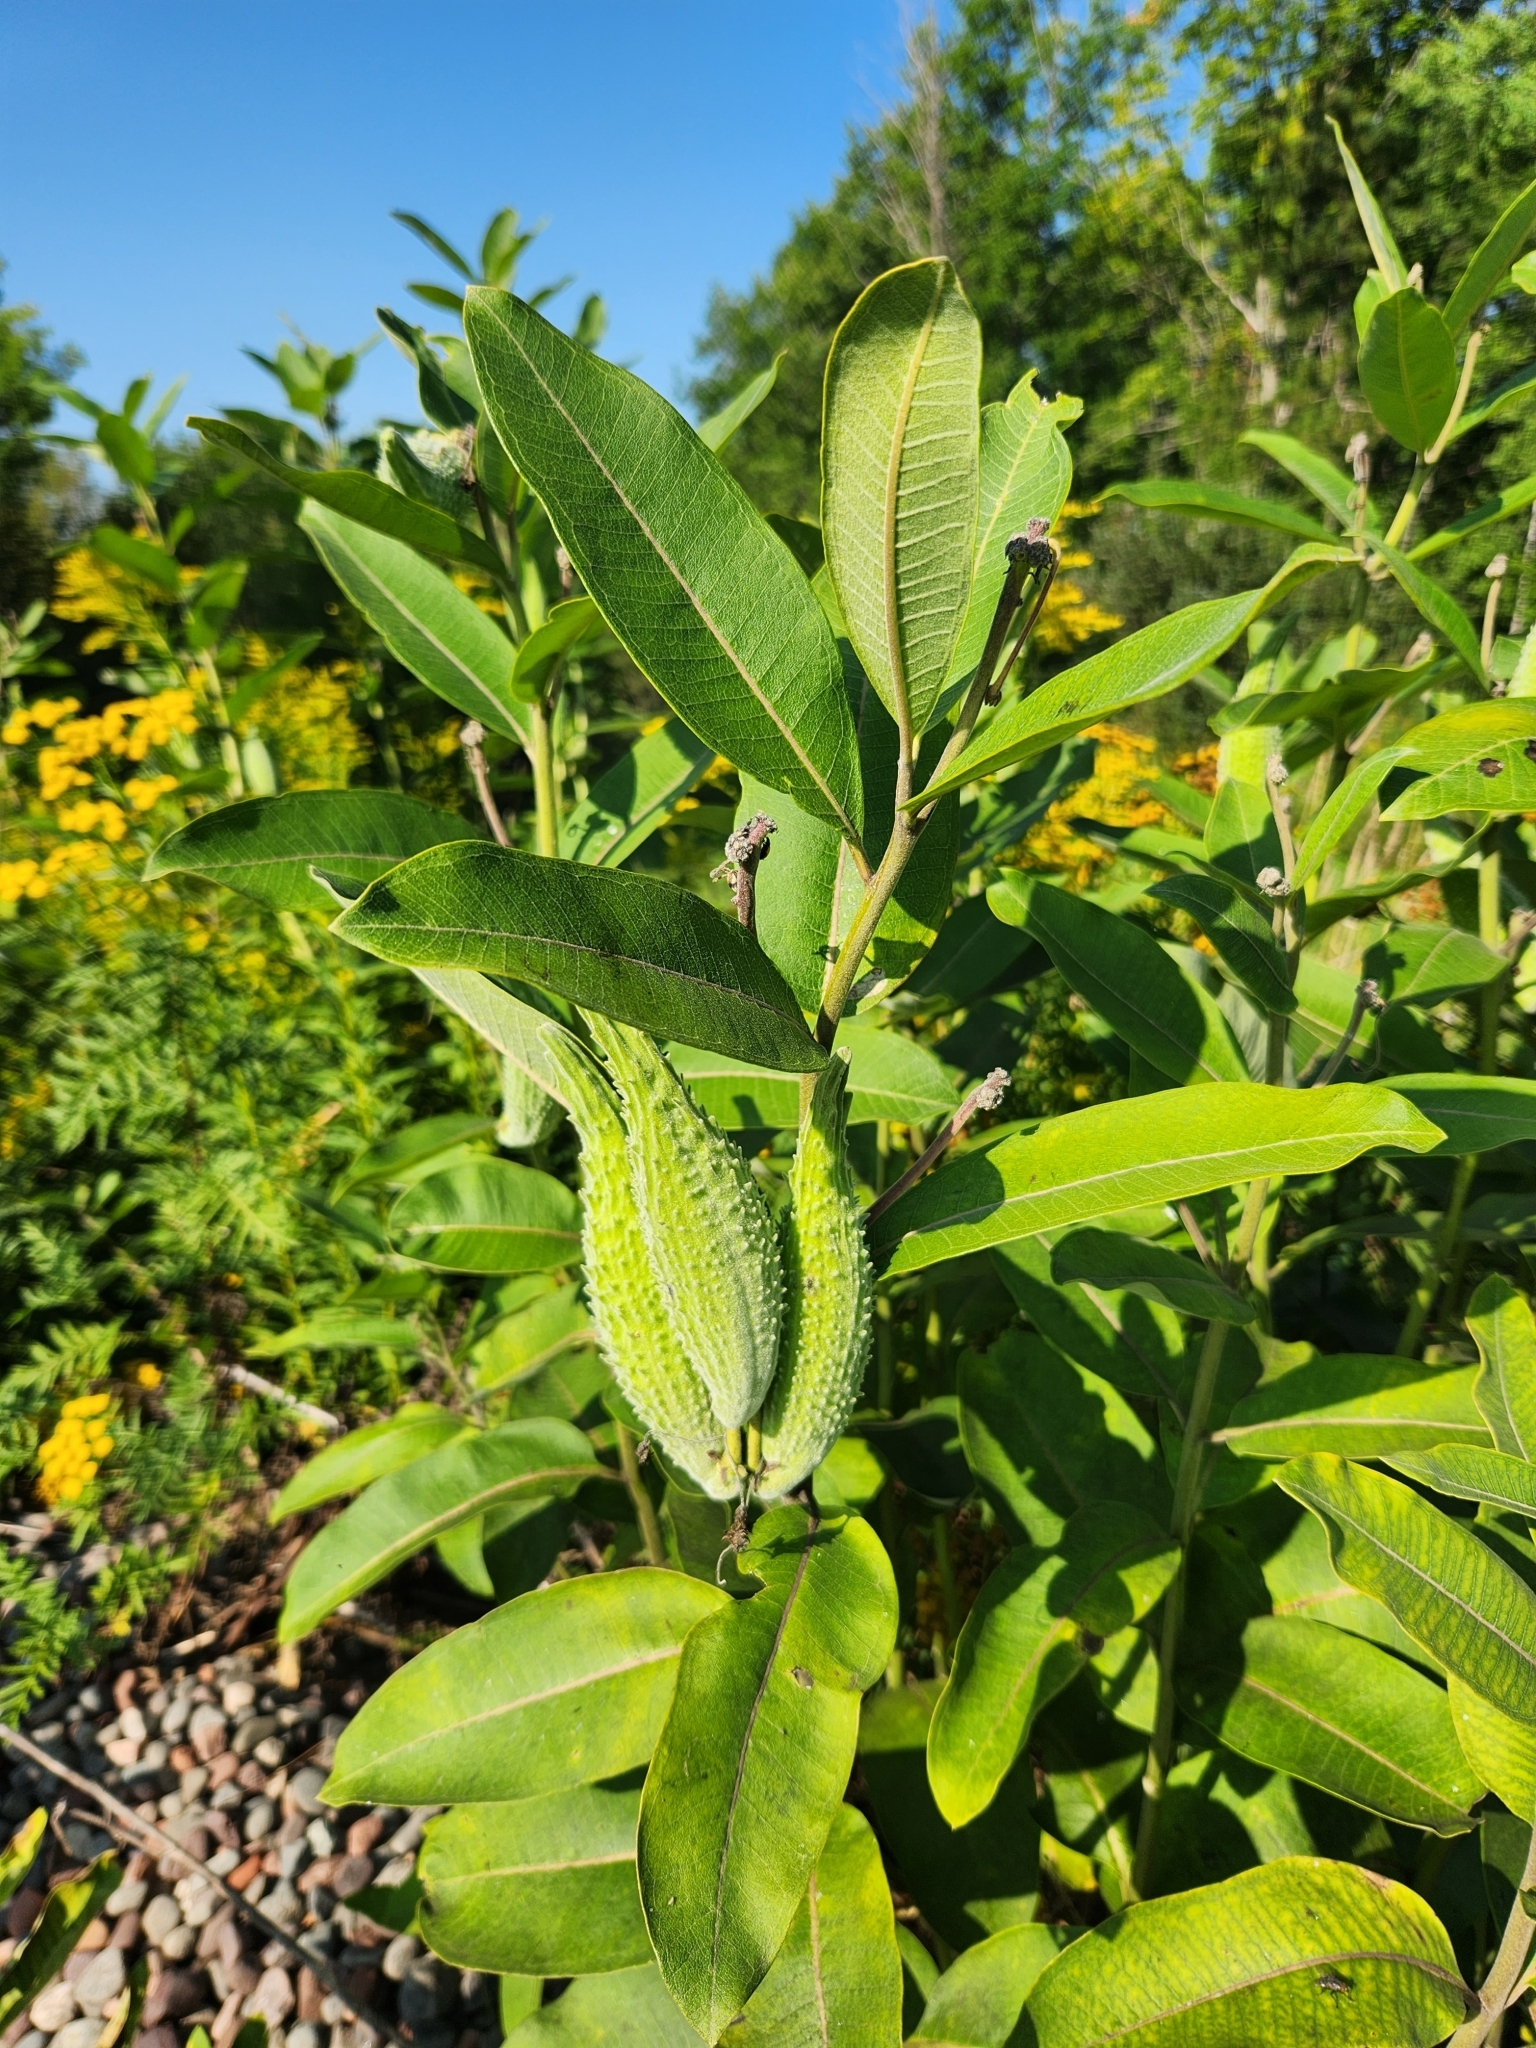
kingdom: Plantae
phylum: Tracheophyta
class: Magnoliopsida
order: Gentianales
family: Apocynaceae
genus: Asclepias
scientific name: Asclepias syriaca
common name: Common milkweed
